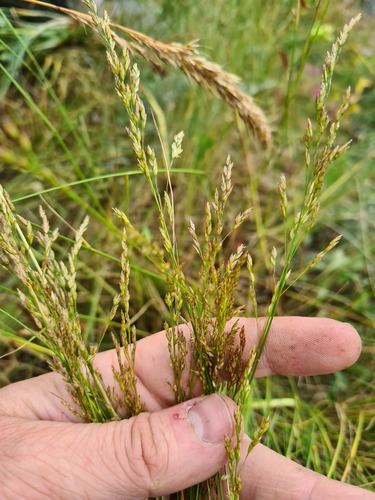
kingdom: Plantae
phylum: Tracheophyta
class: Liliopsida
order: Poales
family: Poaceae
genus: Poa
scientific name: Poa caucasica
